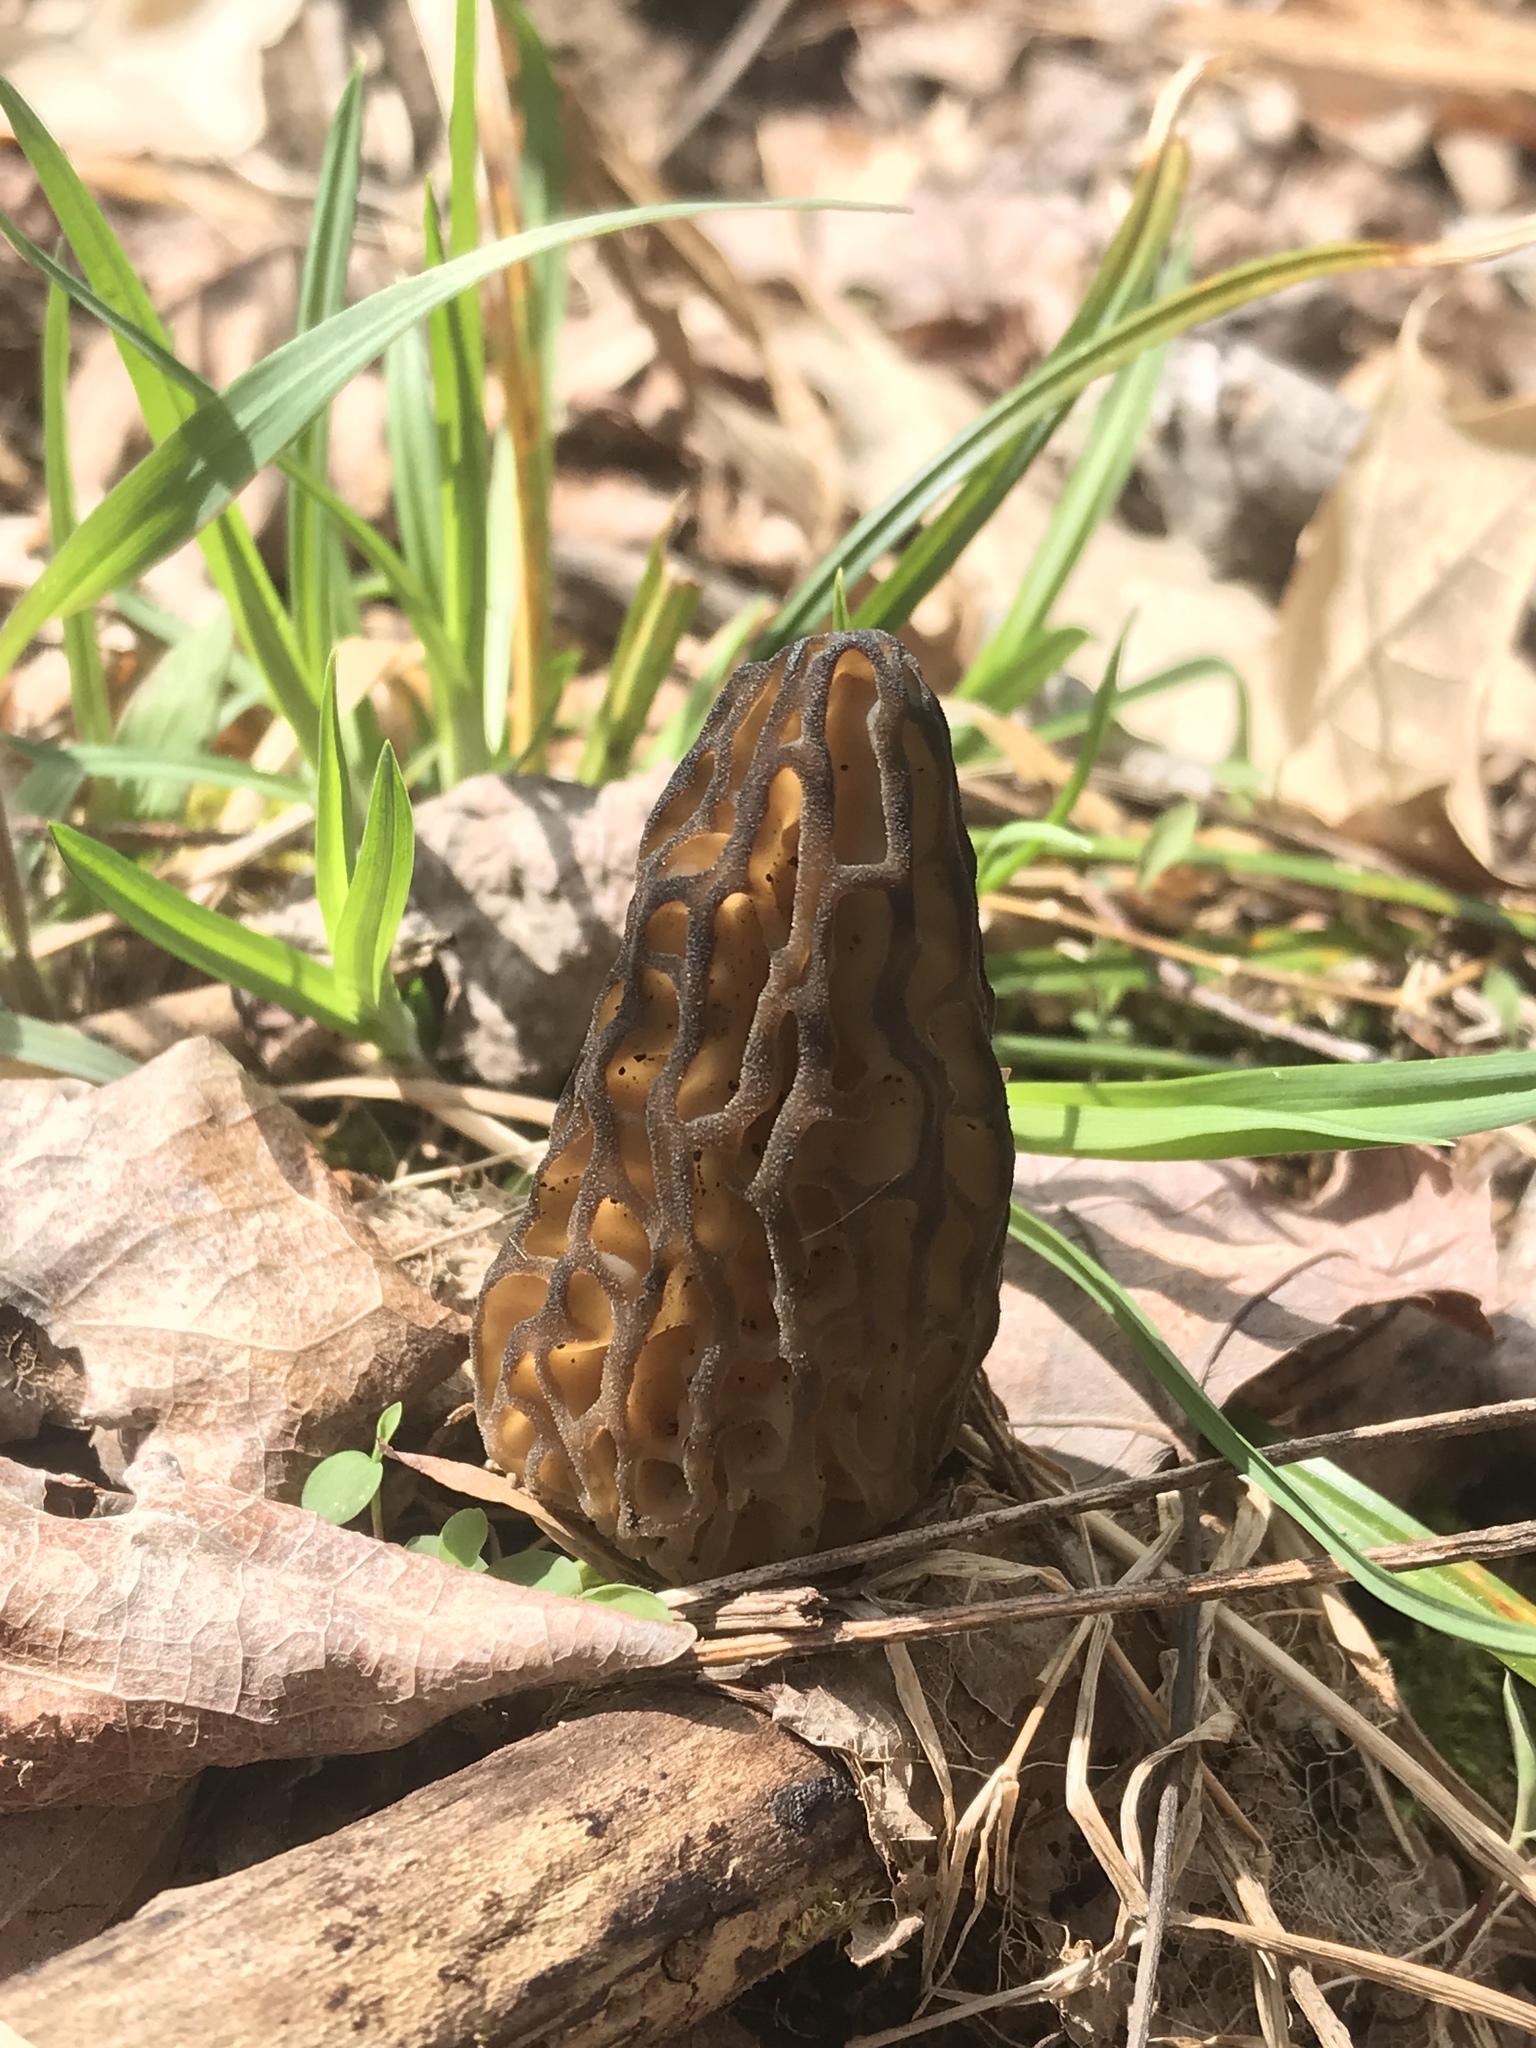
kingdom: Fungi
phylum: Ascomycota
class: Pezizomycetes
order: Pezizales
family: Morchellaceae
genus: Morchella
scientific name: Morchella angusticeps
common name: Black morel
